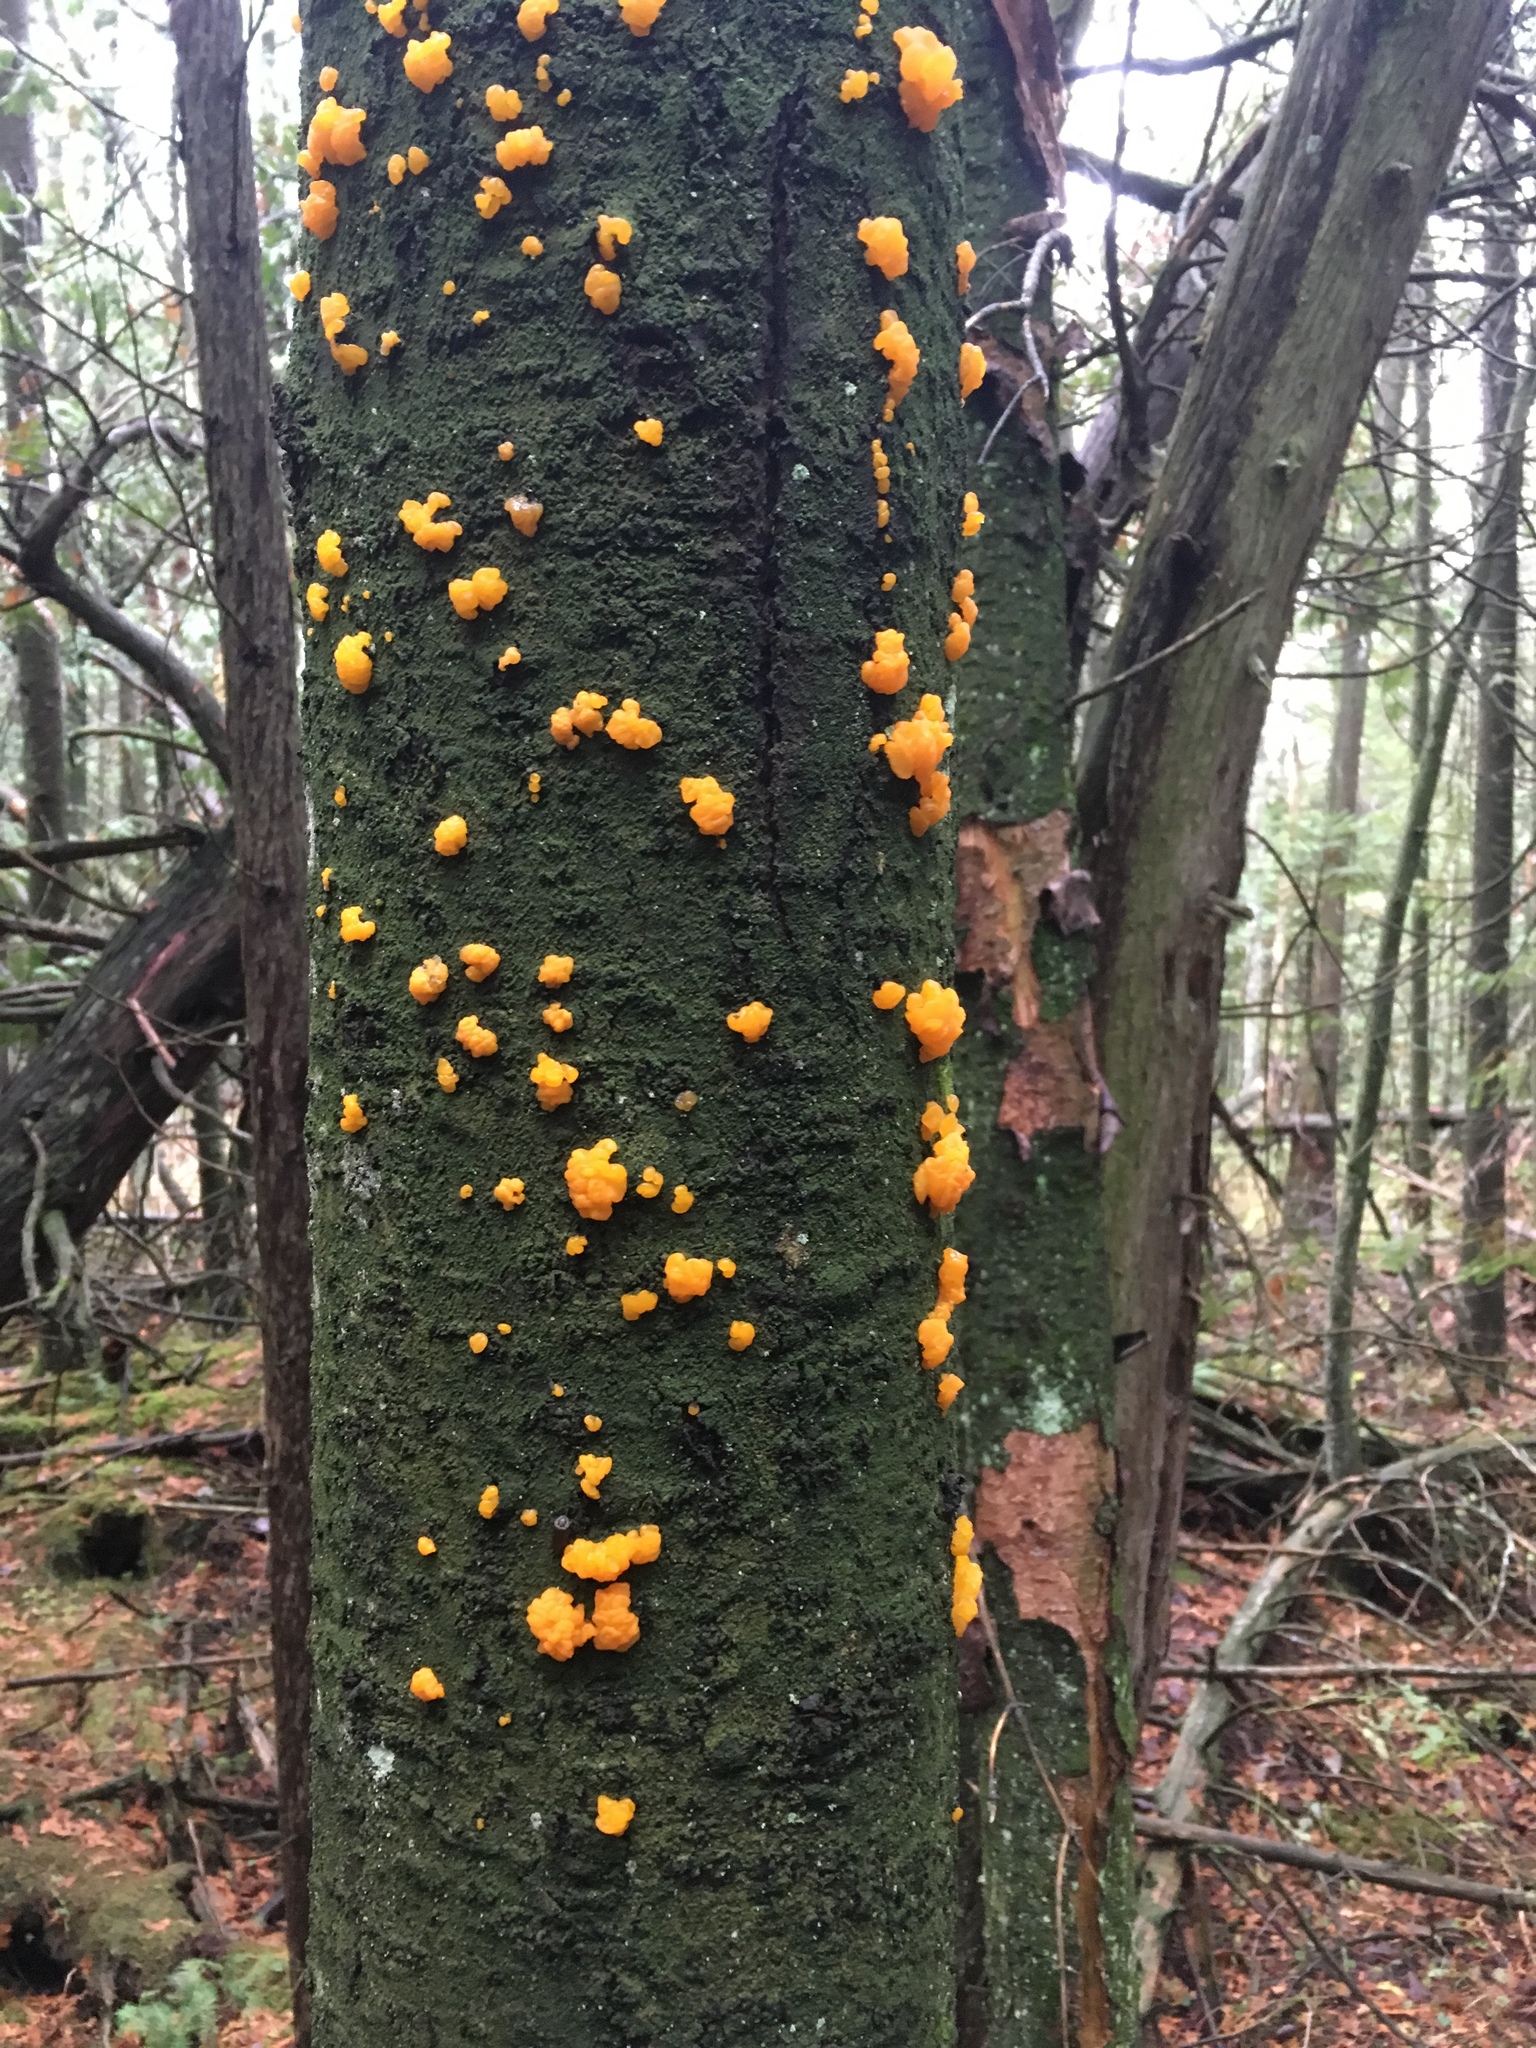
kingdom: Fungi
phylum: Basidiomycota
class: Dacrymycetes
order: Dacrymycetales
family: Dacrymycetaceae
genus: Dacrymyces
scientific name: Dacrymyces chrysospermus
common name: Orange jelly spot
